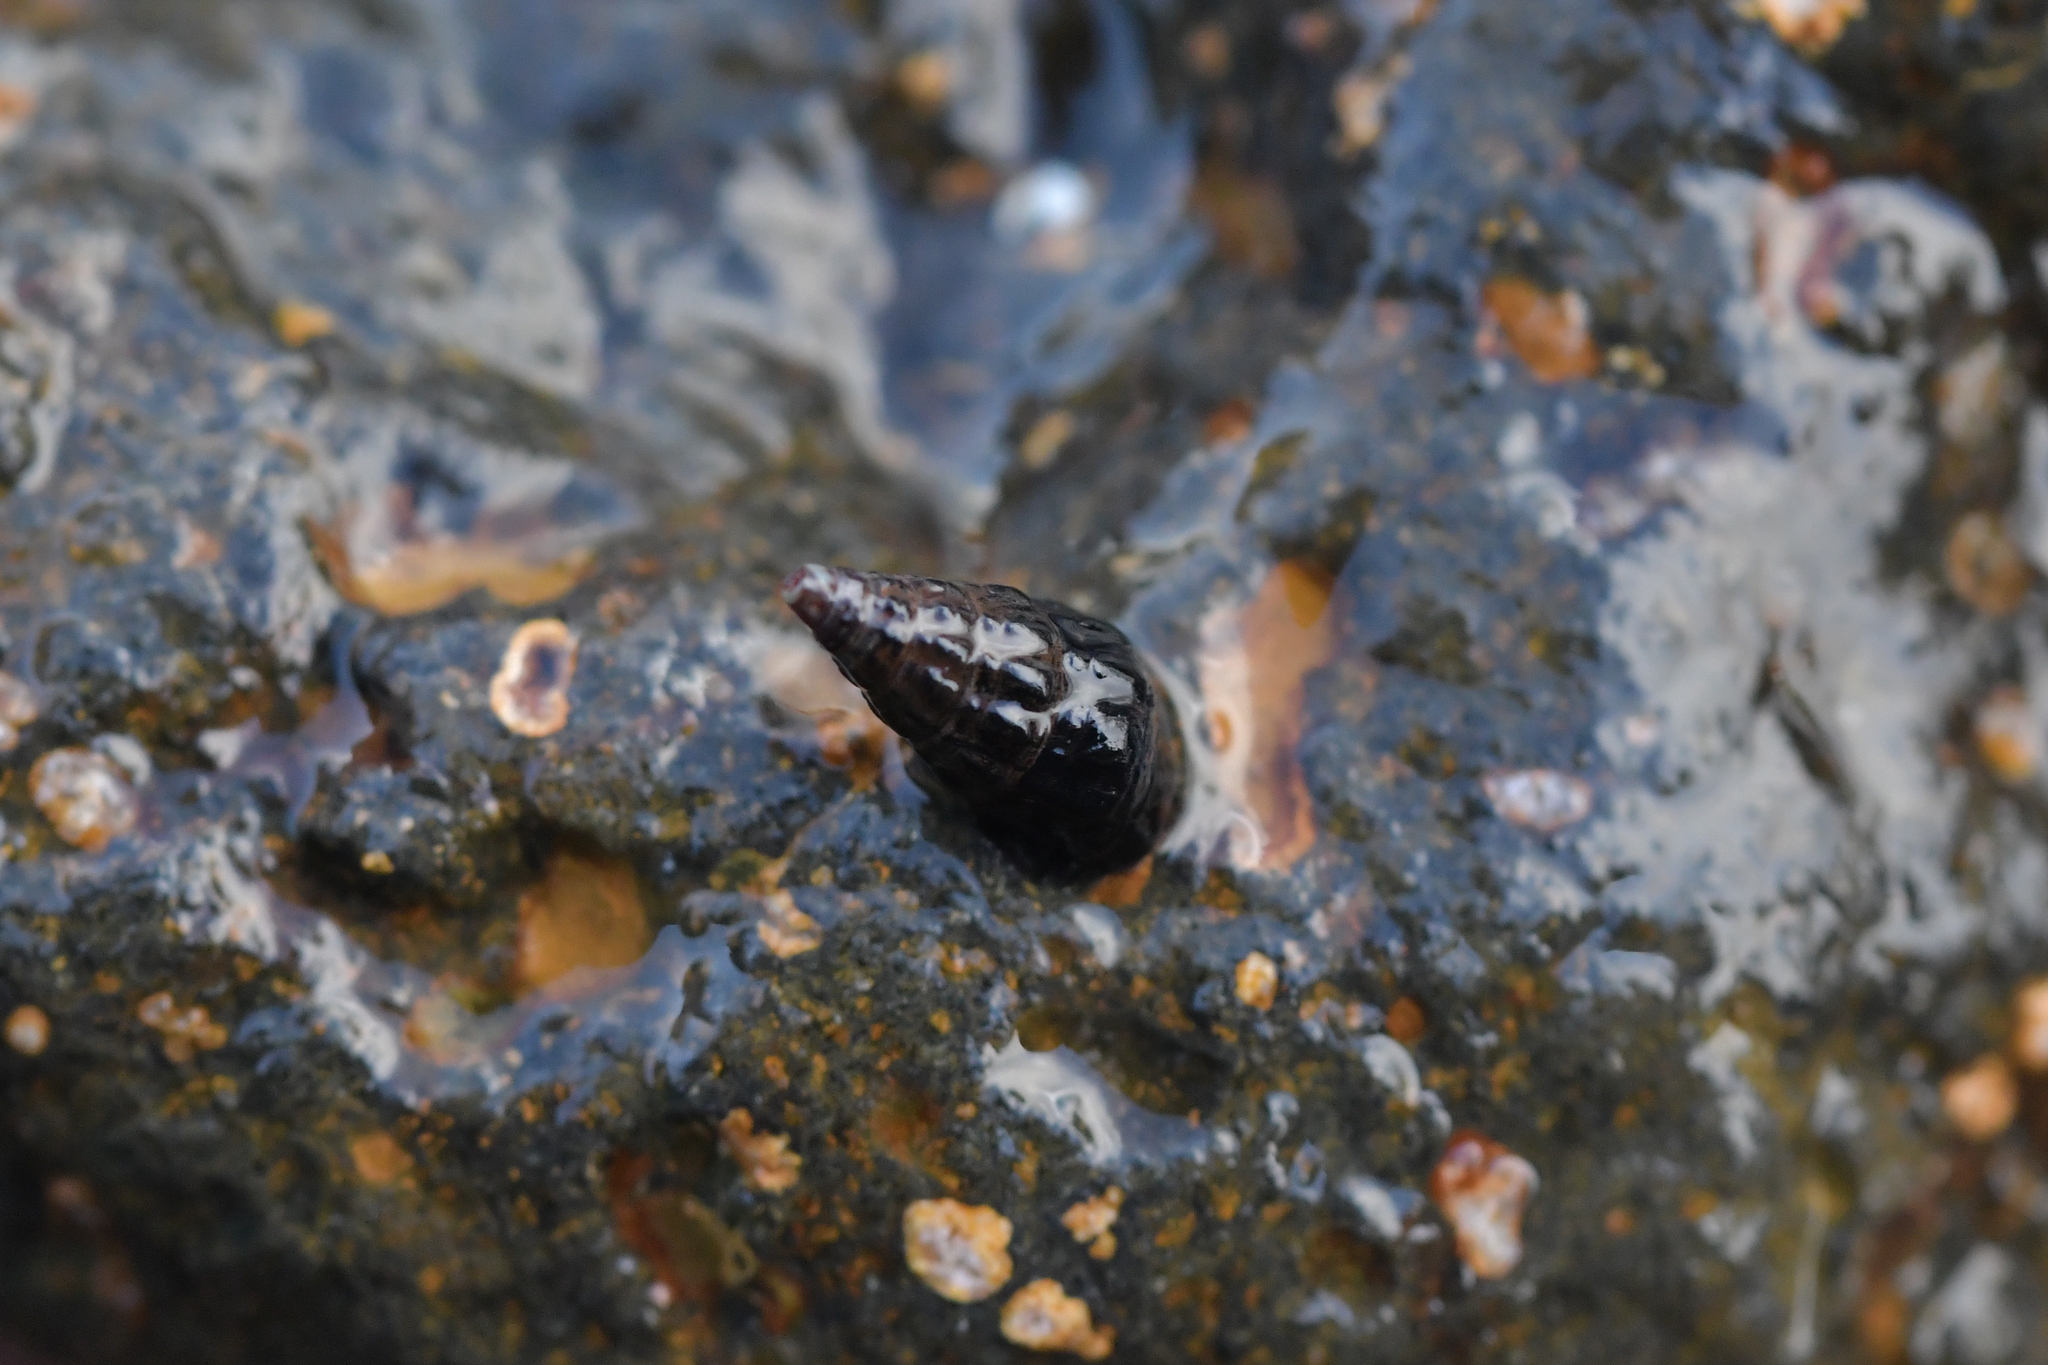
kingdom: Animalia
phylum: Mollusca
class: Gastropoda
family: Batillariidae
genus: Zeacumantus
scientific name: Zeacumantus subcarinatus
